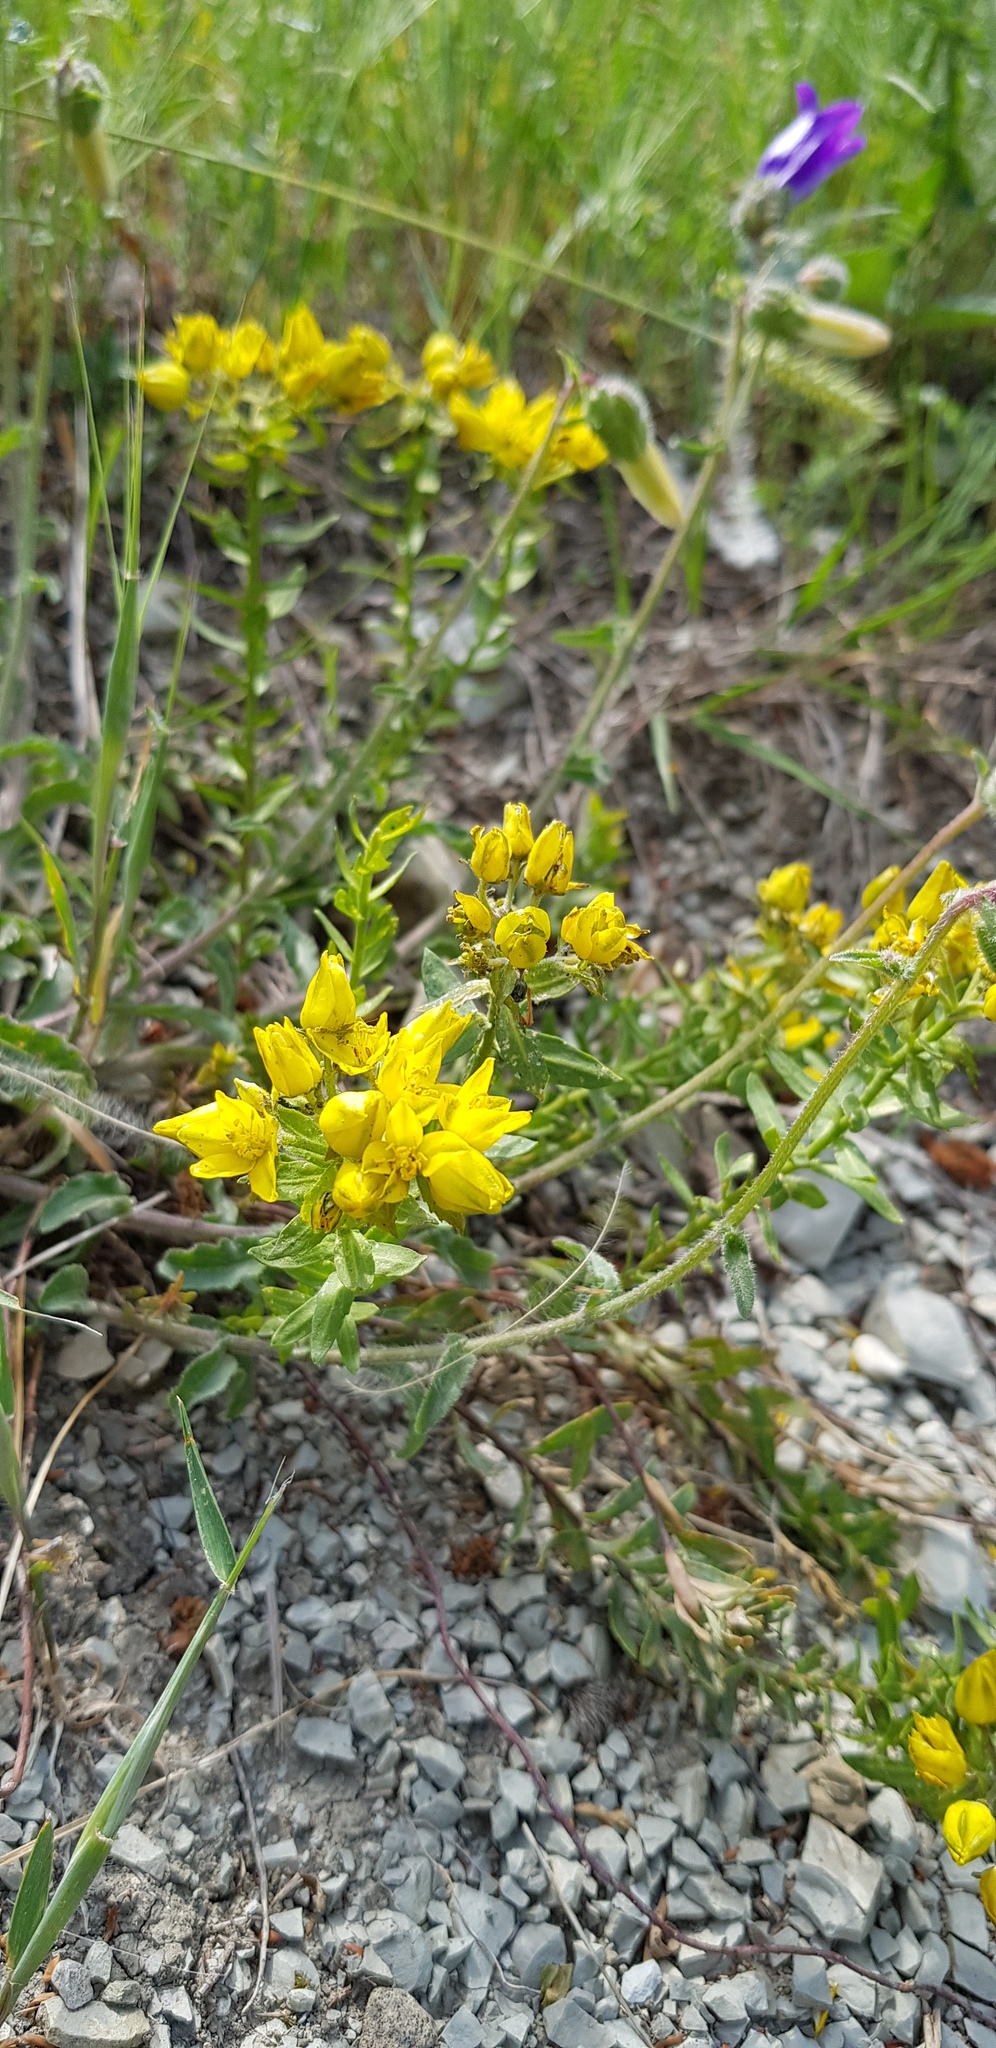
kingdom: Plantae
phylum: Tracheophyta
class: Magnoliopsida
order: Sapindales
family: Rutaceae
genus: Haplophyllum
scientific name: Haplophyllum thesioides
